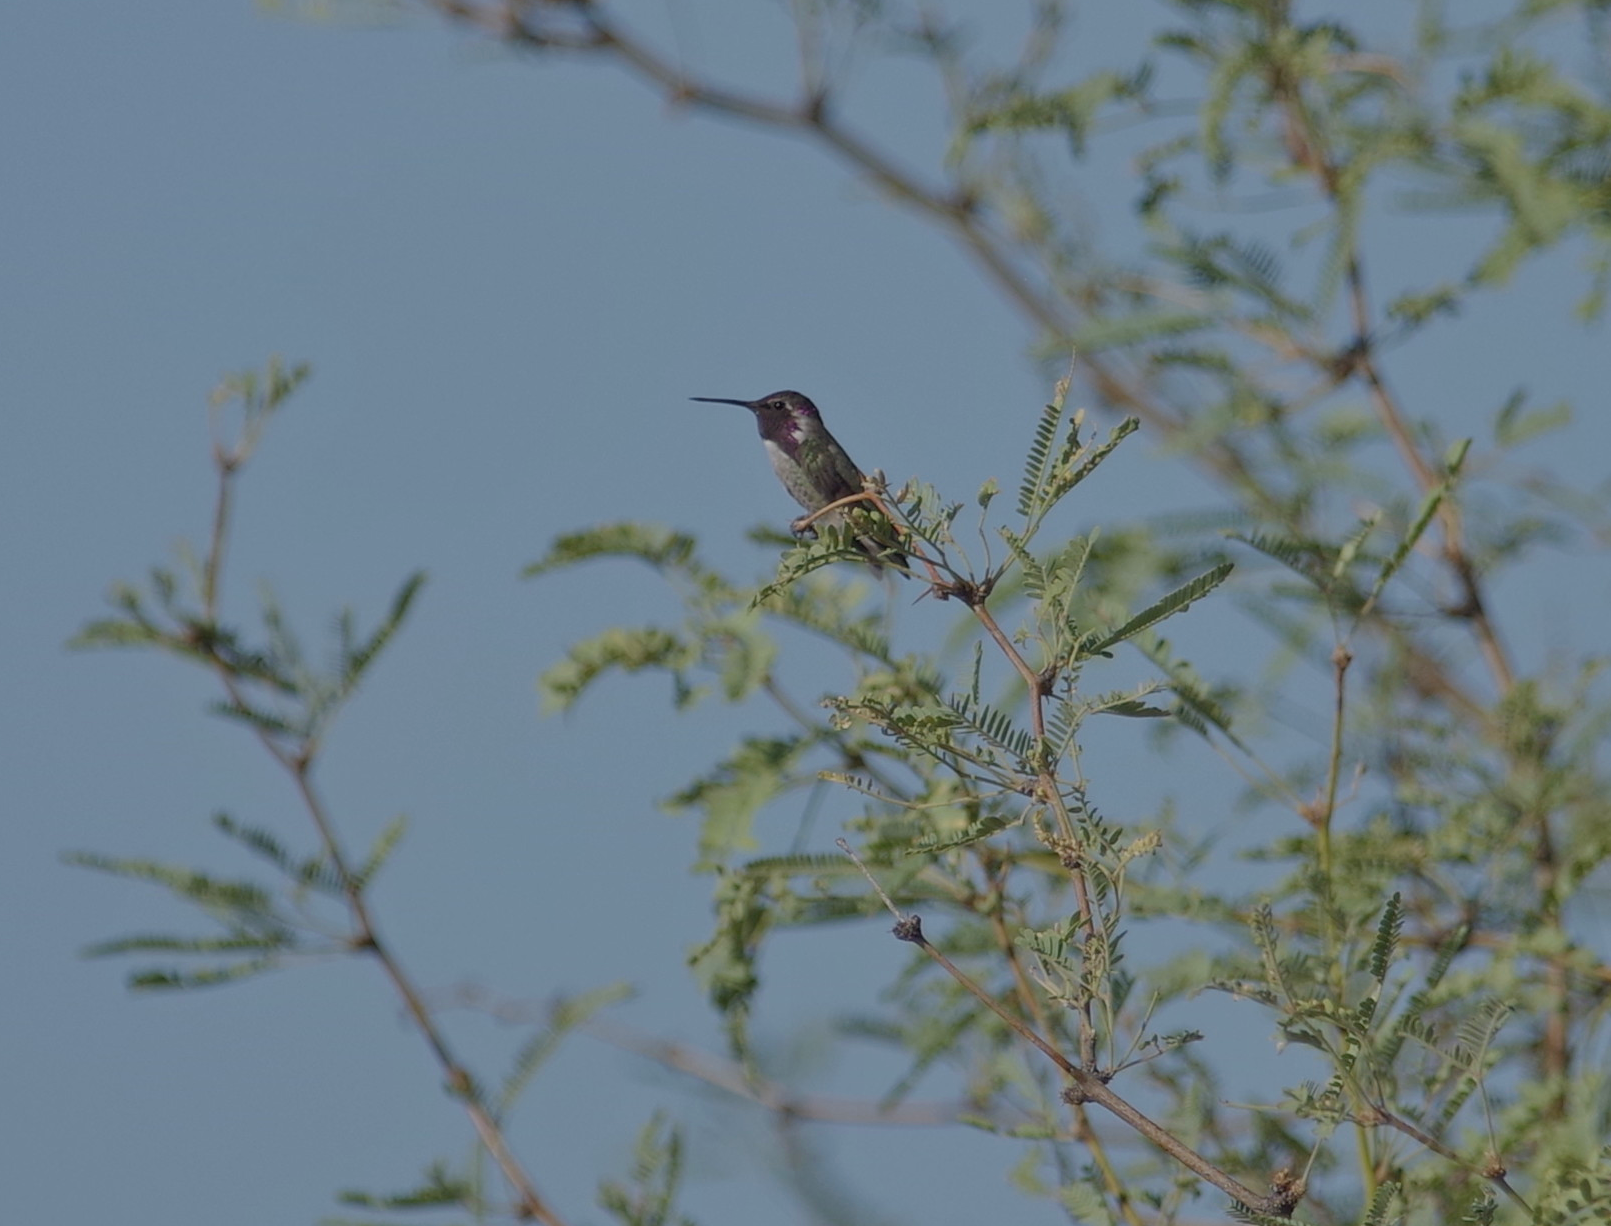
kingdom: Animalia
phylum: Chordata
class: Aves
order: Apodiformes
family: Trochilidae
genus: Calypte
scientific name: Calypte costae
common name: Costa's hummingbird
